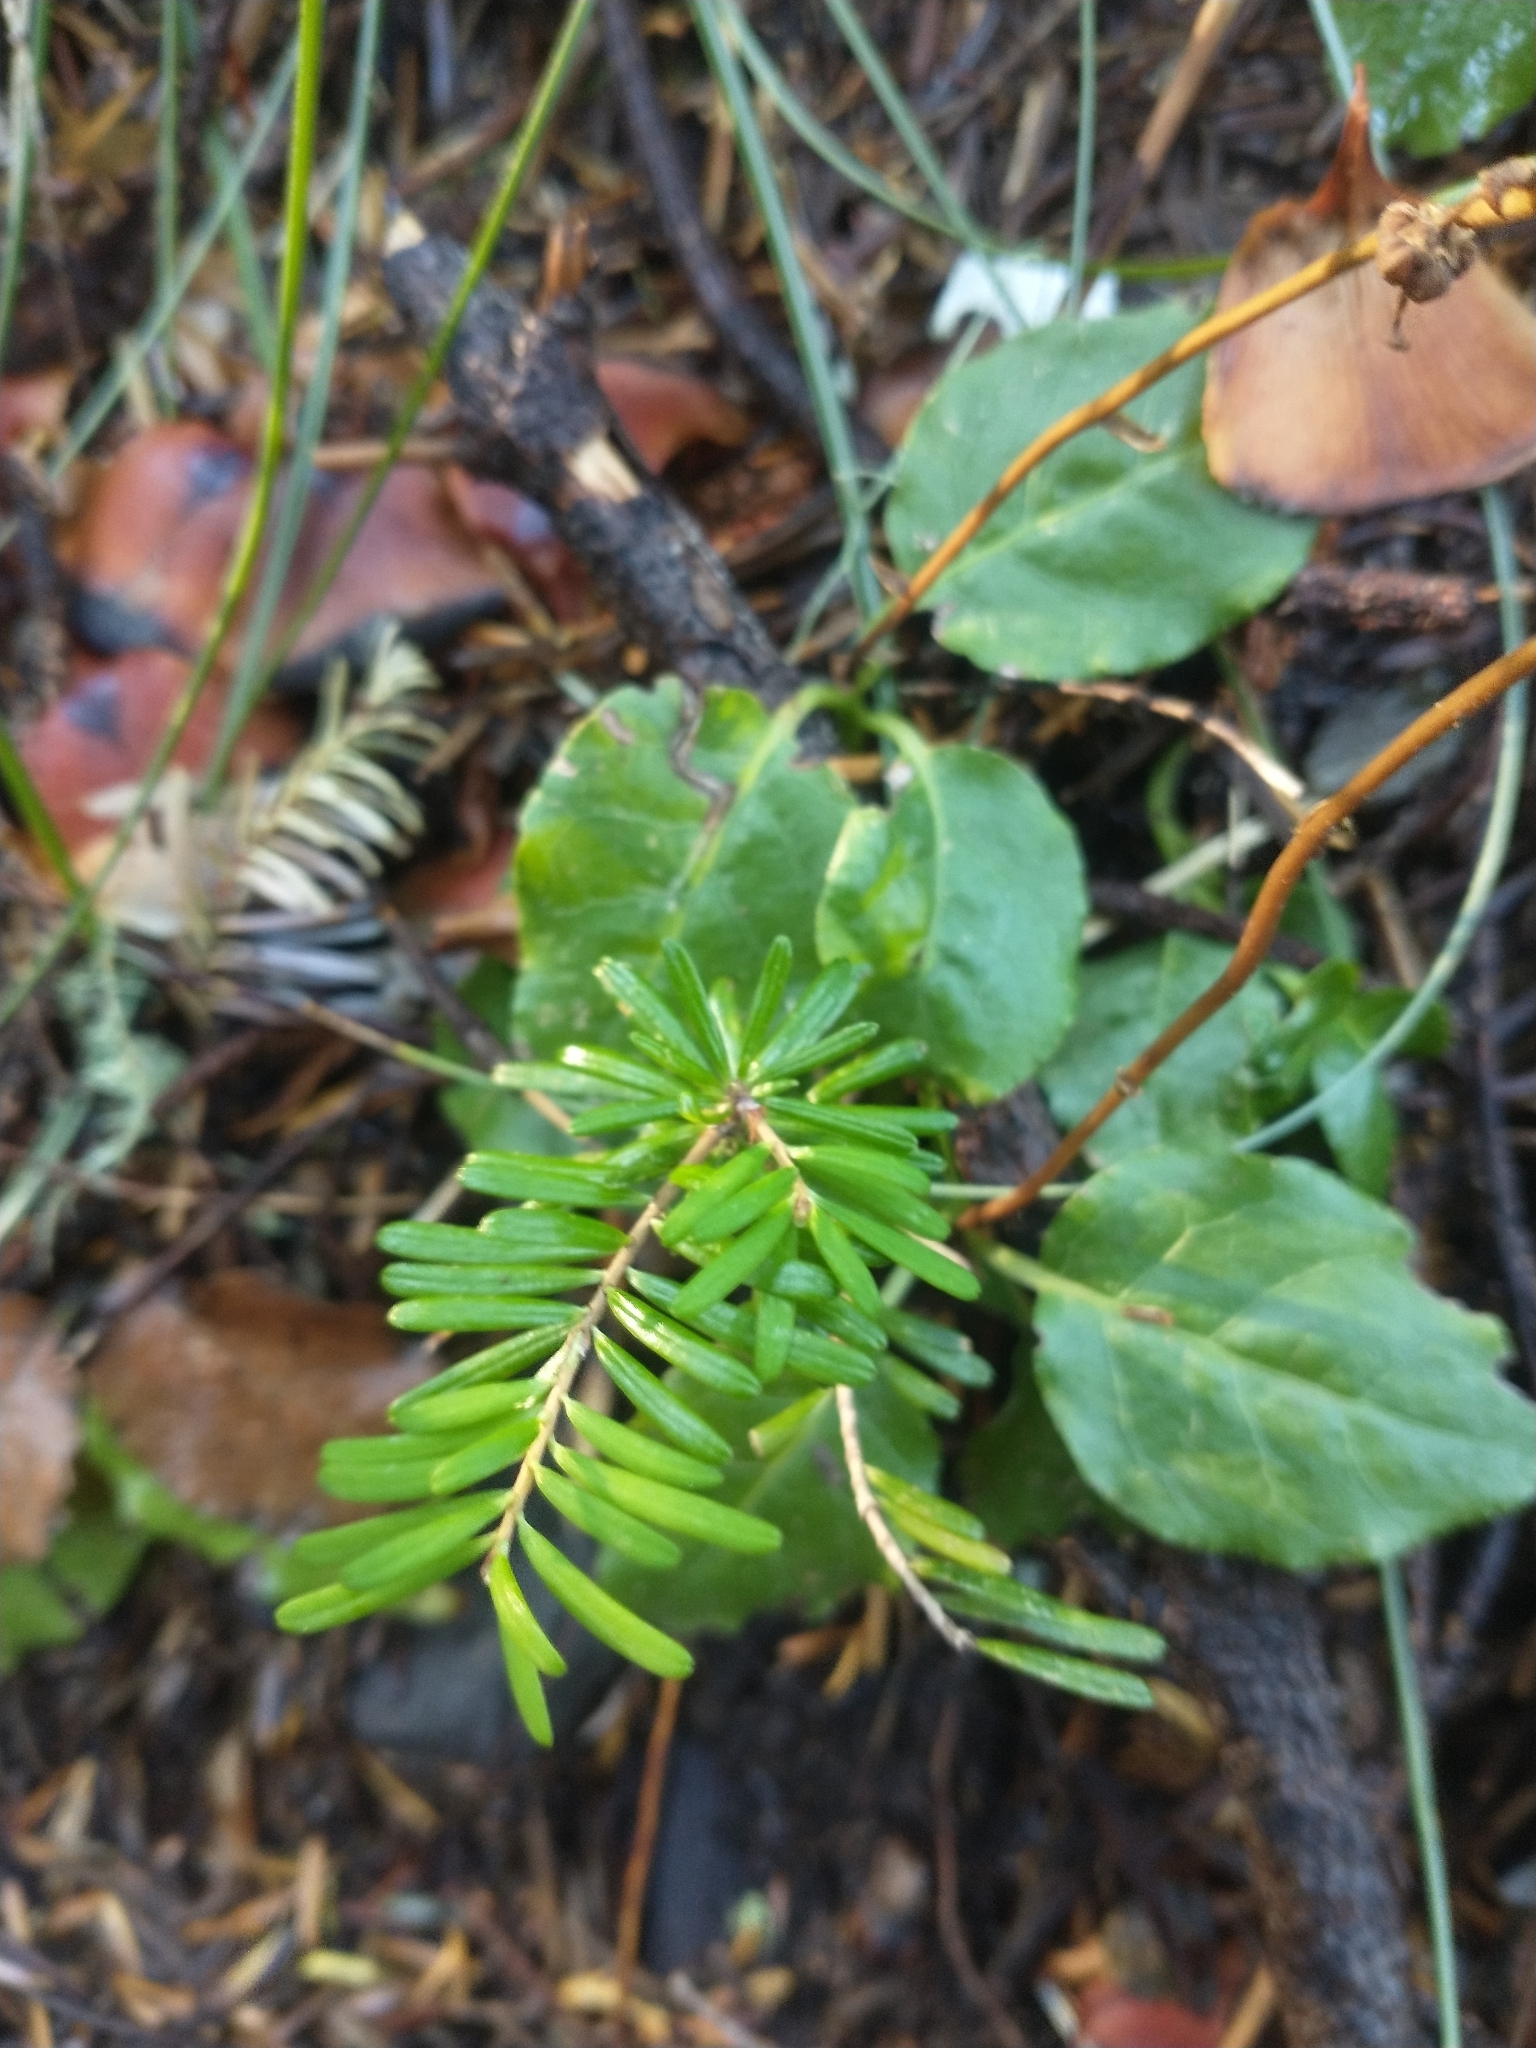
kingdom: Plantae
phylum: Tracheophyta
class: Pinopsida
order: Pinales
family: Pinaceae
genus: Abies
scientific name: Abies amabilis
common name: Pacific silver fir
